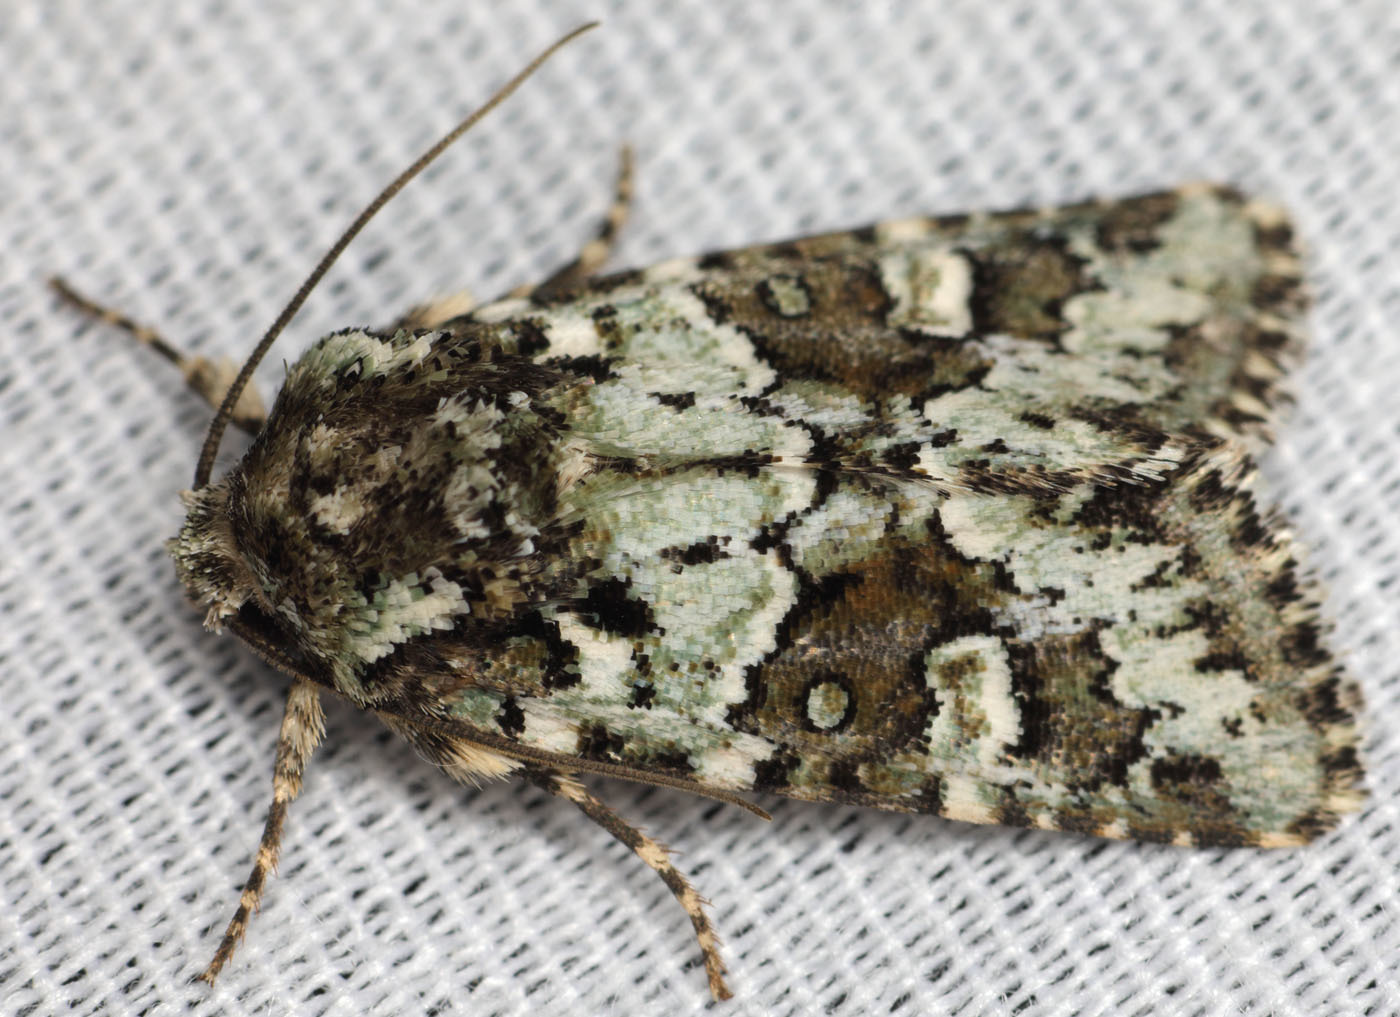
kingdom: Animalia
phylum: Arthropoda
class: Insecta
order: Lepidoptera
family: Noctuidae
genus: Lacinipolia
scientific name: Lacinipolia strigicollis
